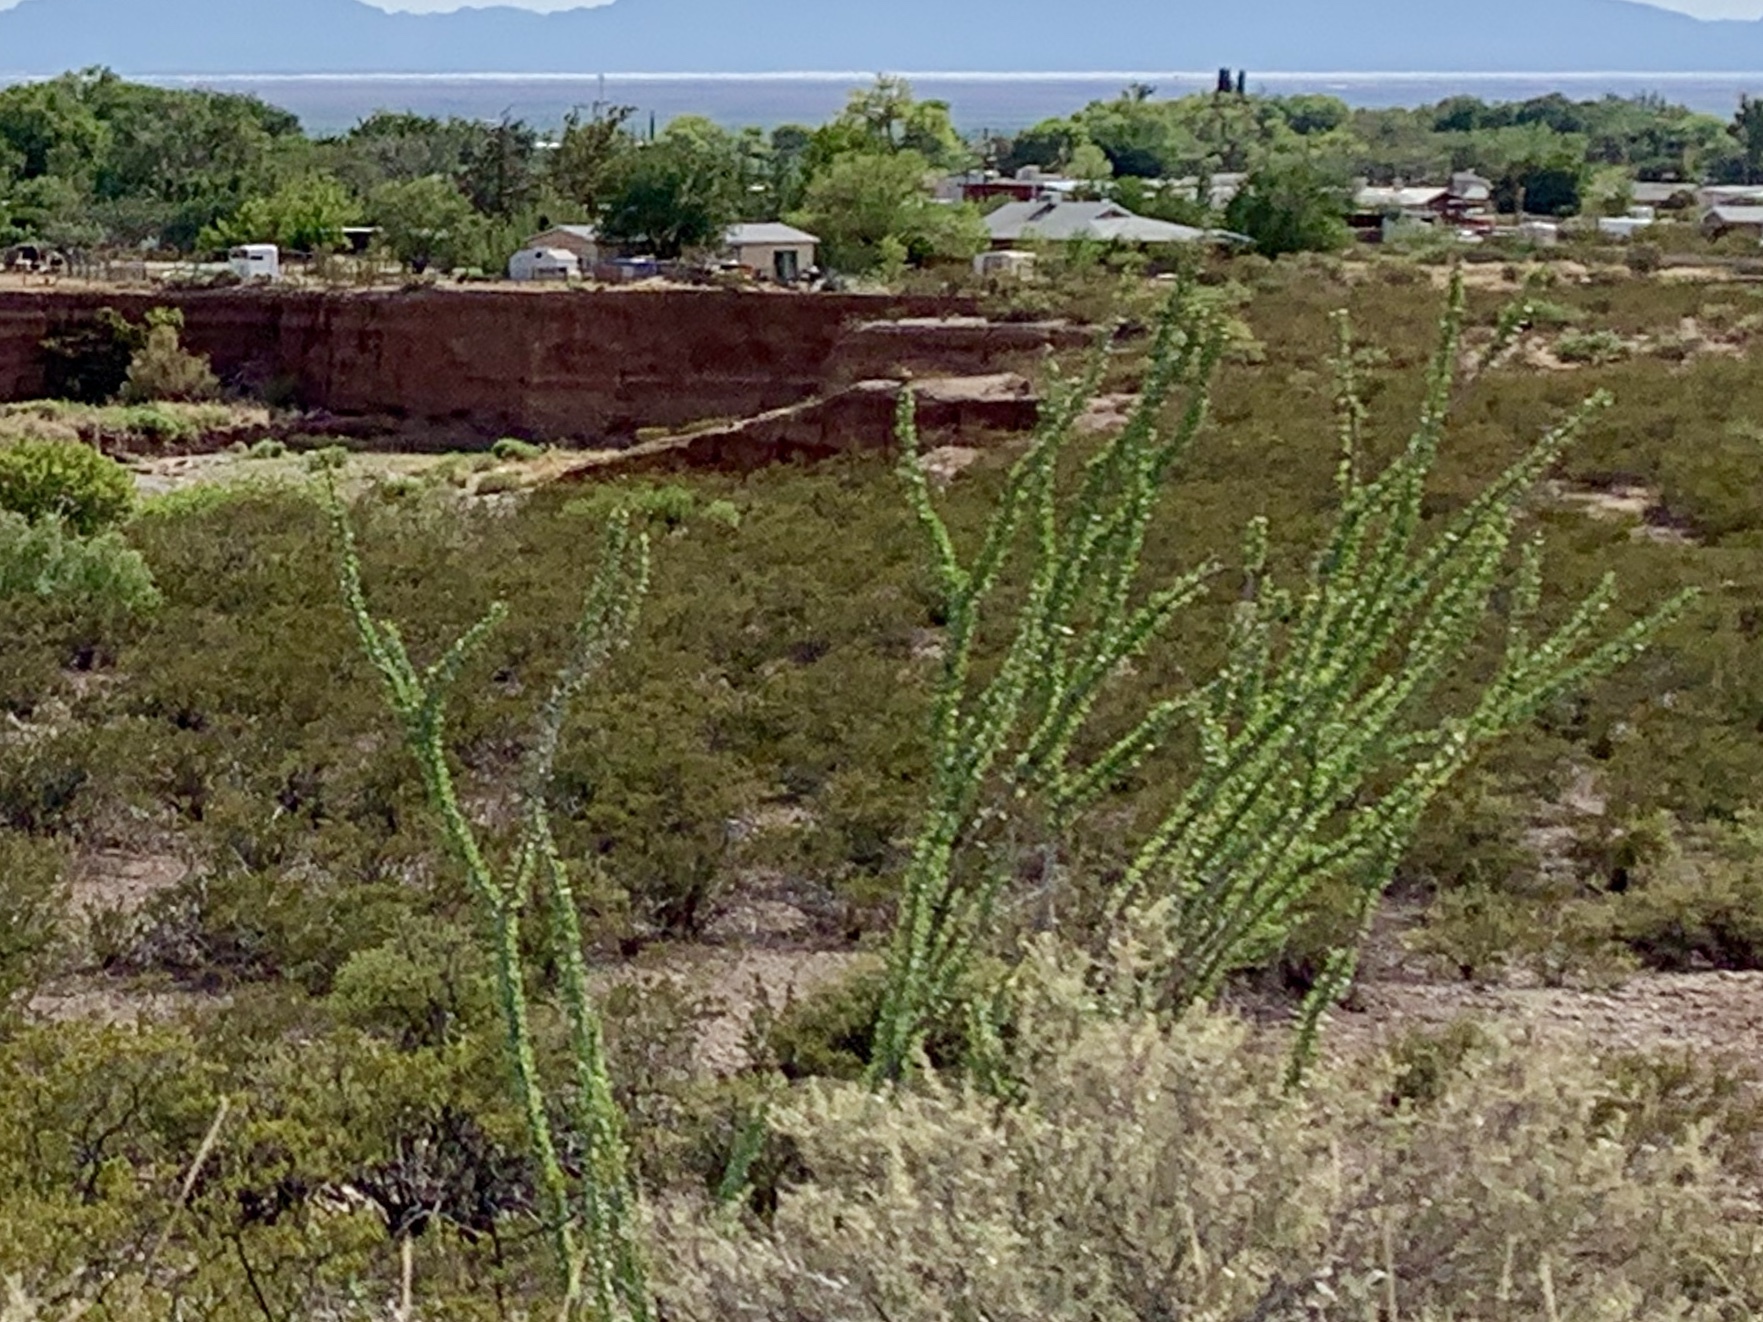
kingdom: Plantae
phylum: Tracheophyta
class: Magnoliopsida
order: Ericales
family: Fouquieriaceae
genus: Fouquieria
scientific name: Fouquieria splendens
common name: Vine-cactus
